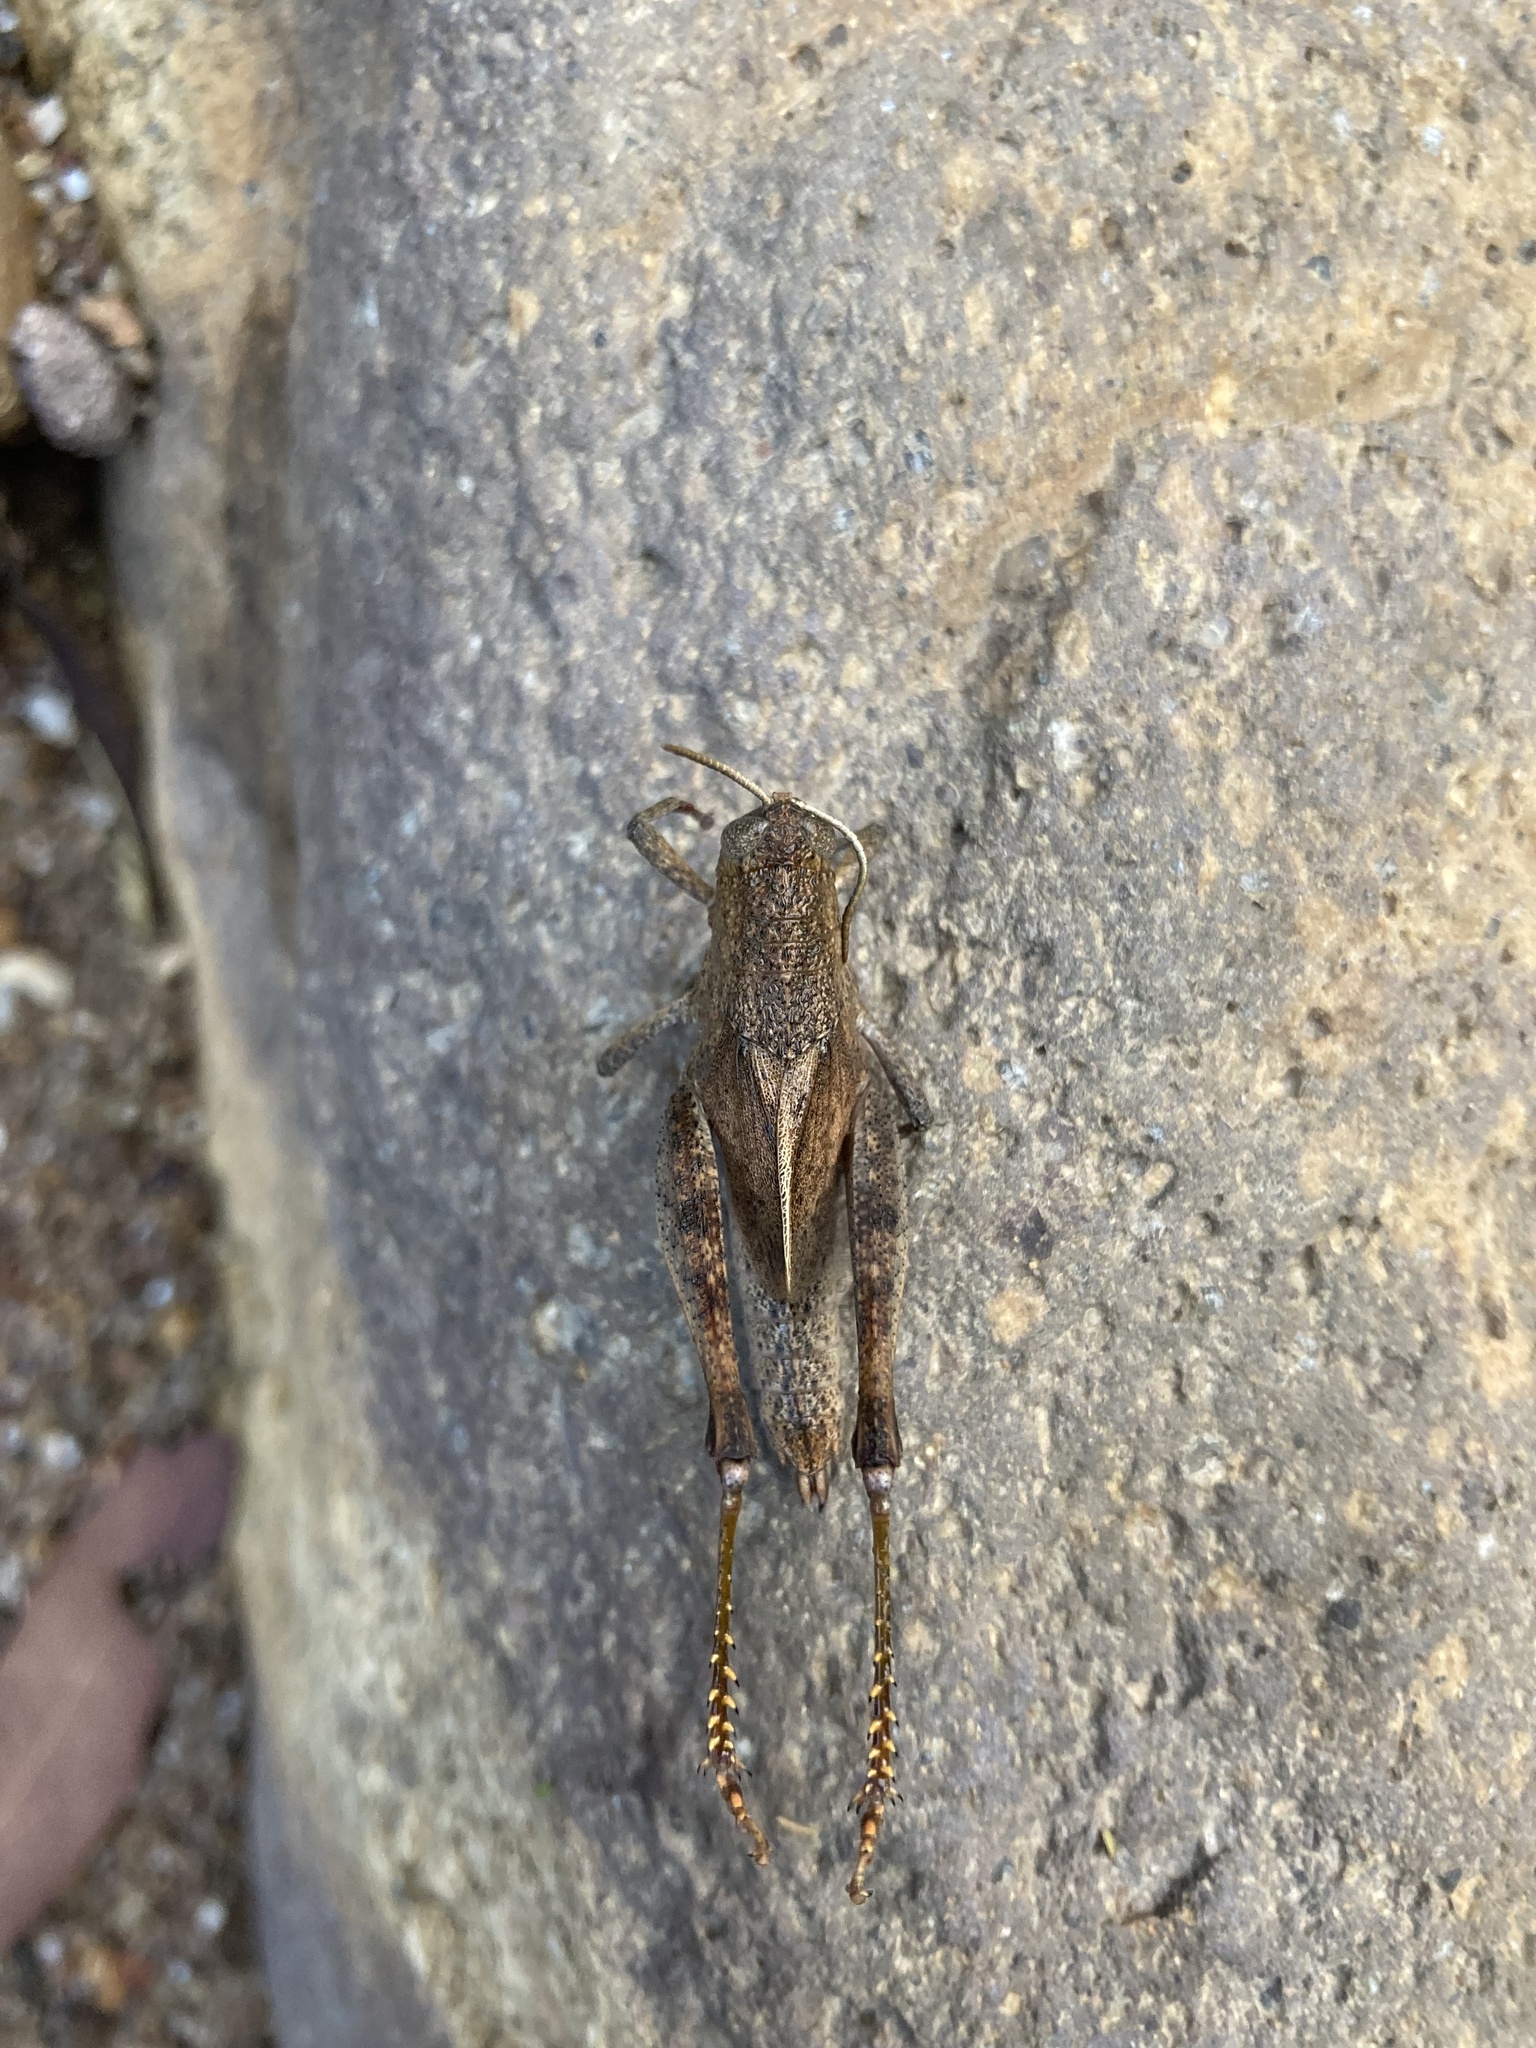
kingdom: Animalia
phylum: Arthropoda
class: Insecta
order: Orthoptera
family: Acrididae
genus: Rhitzala
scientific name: Rhitzala modesta
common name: Short-winged heath grasshopper
